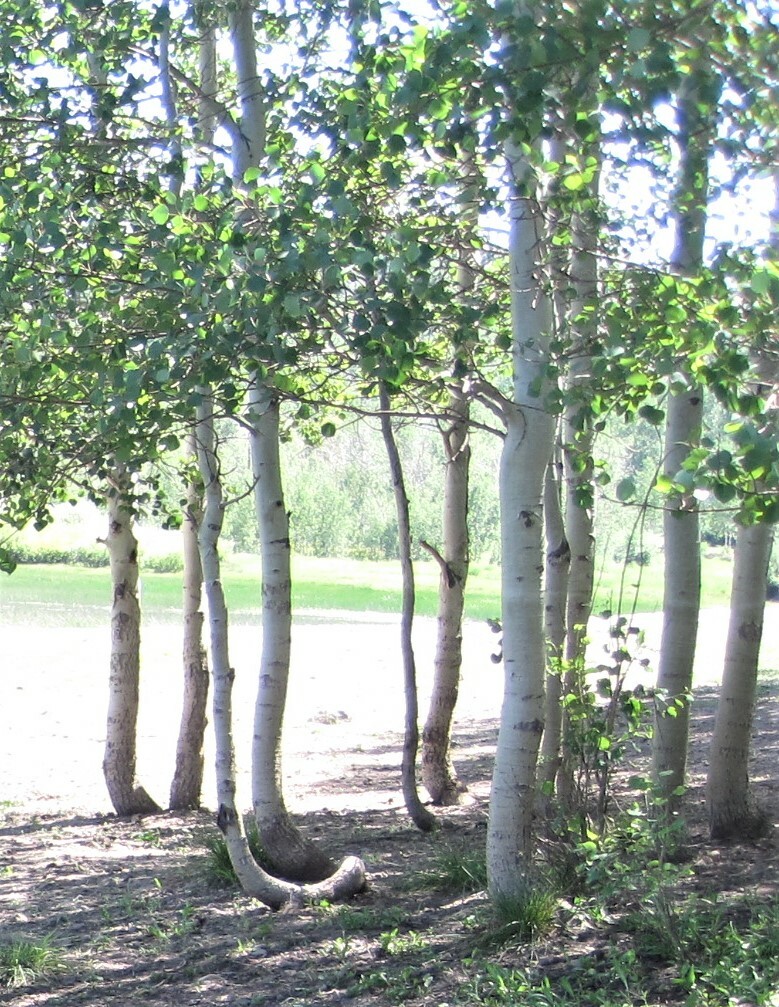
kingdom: Plantae
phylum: Tracheophyta
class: Magnoliopsida
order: Malpighiales
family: Salicaceae
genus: Populus
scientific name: Populus tremuloides
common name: Quaking aspen
